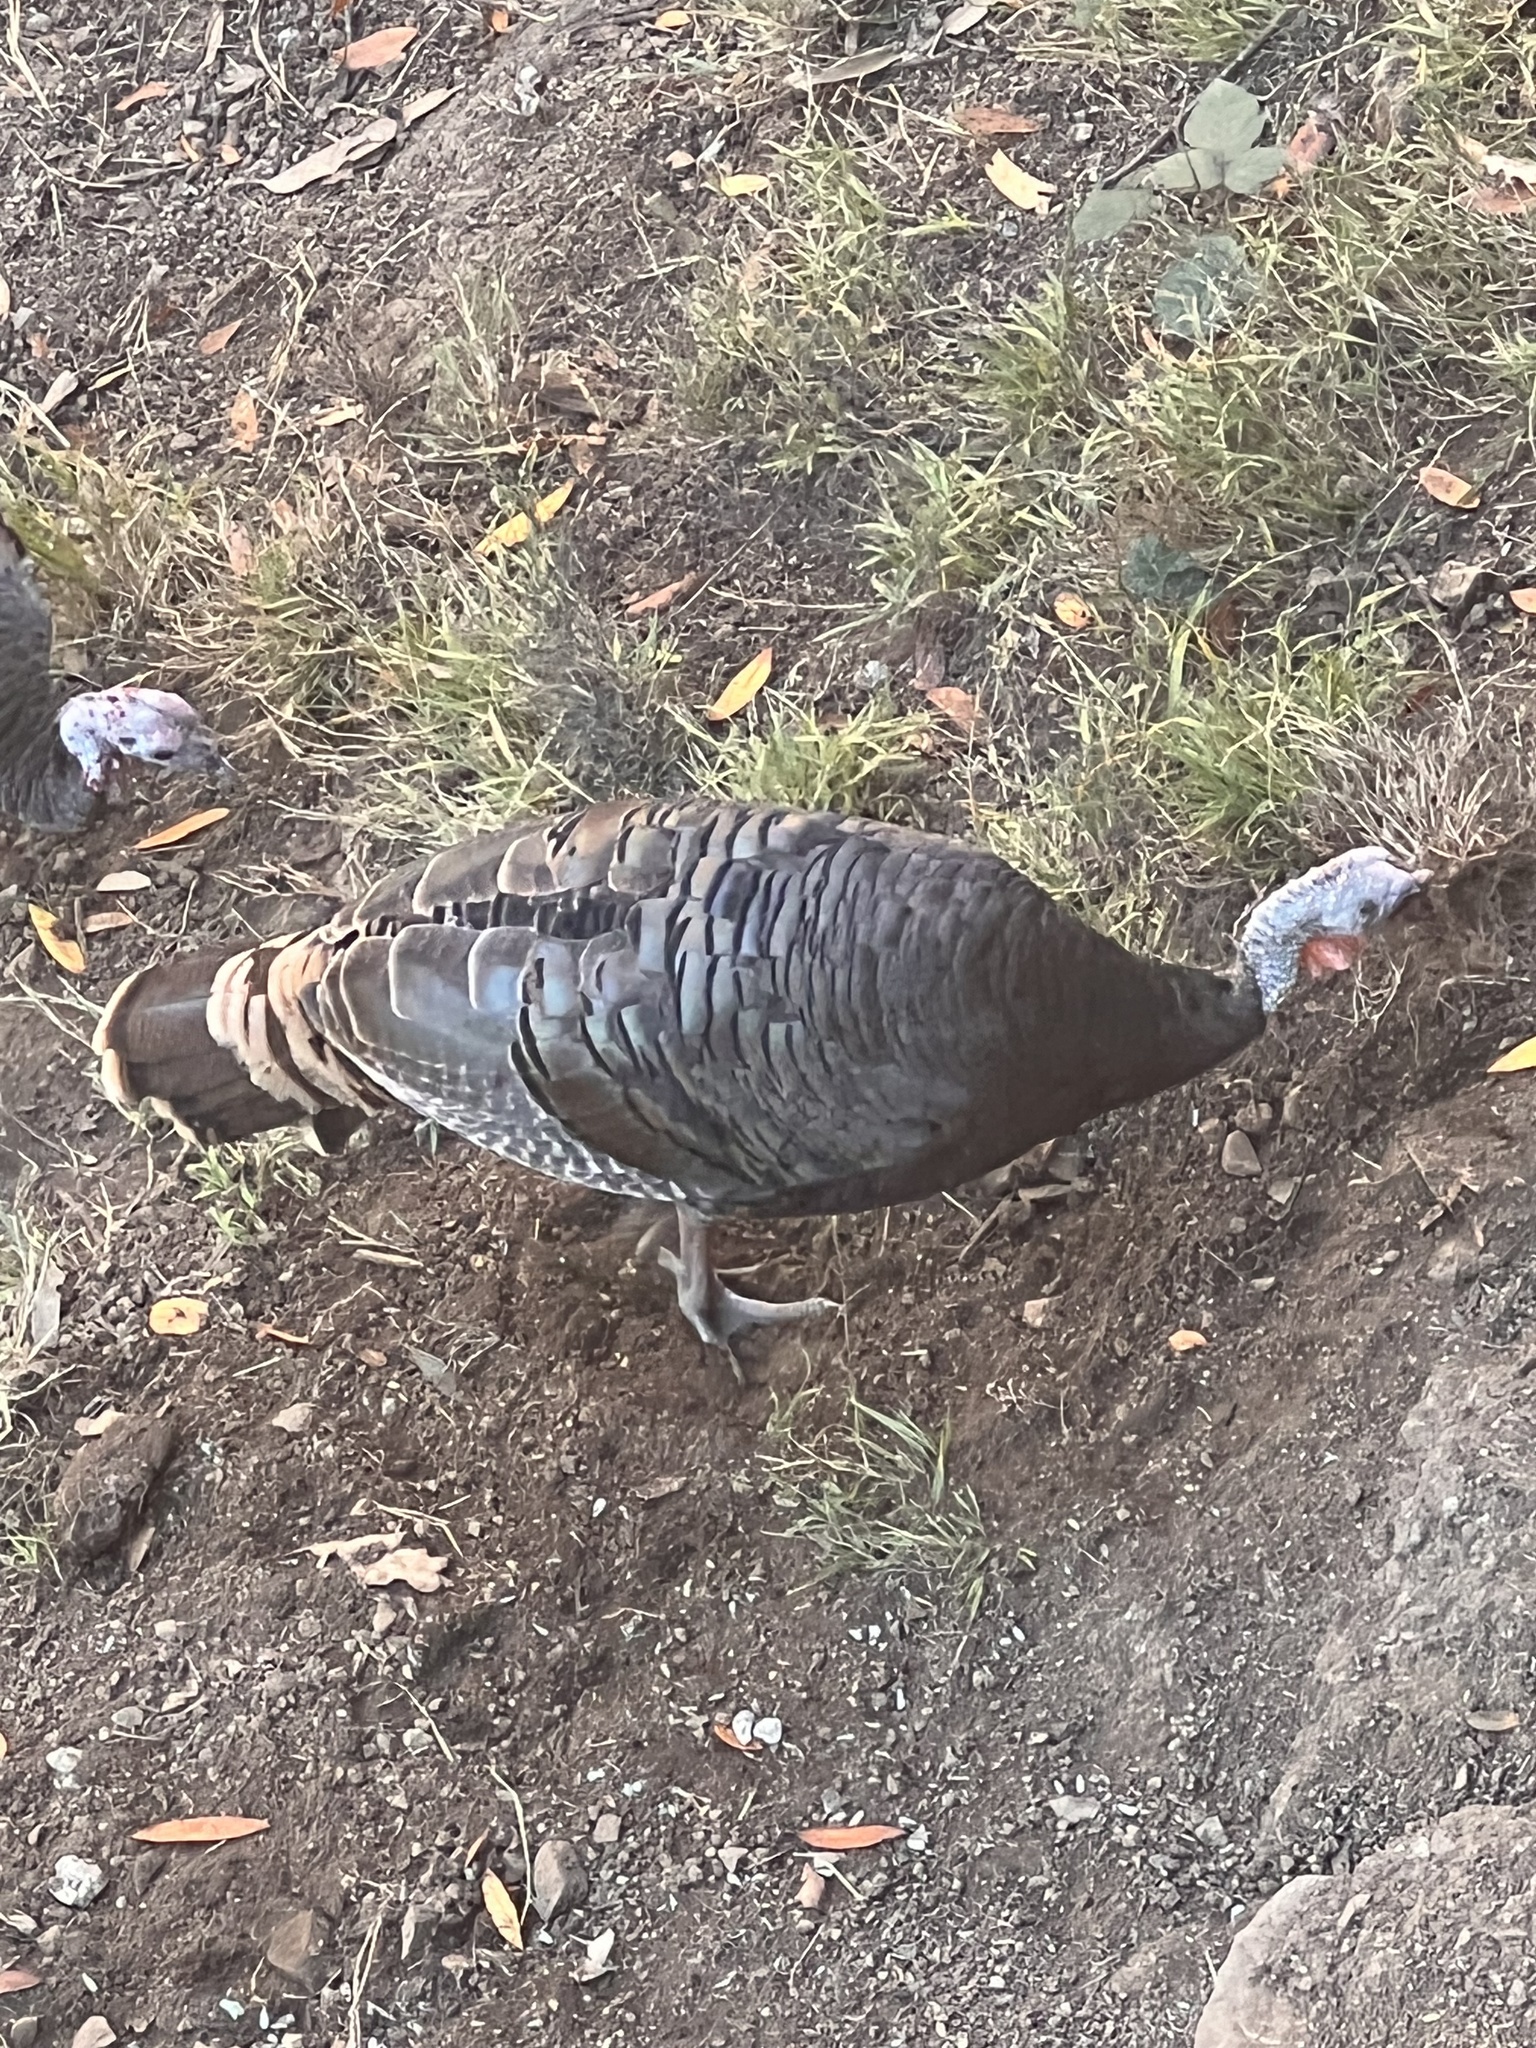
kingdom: Animalia
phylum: Chordata
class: Aves
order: Galliformes
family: Phasianidae
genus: Meleagris
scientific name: Meleagris gallopavo
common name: Wild turkey
